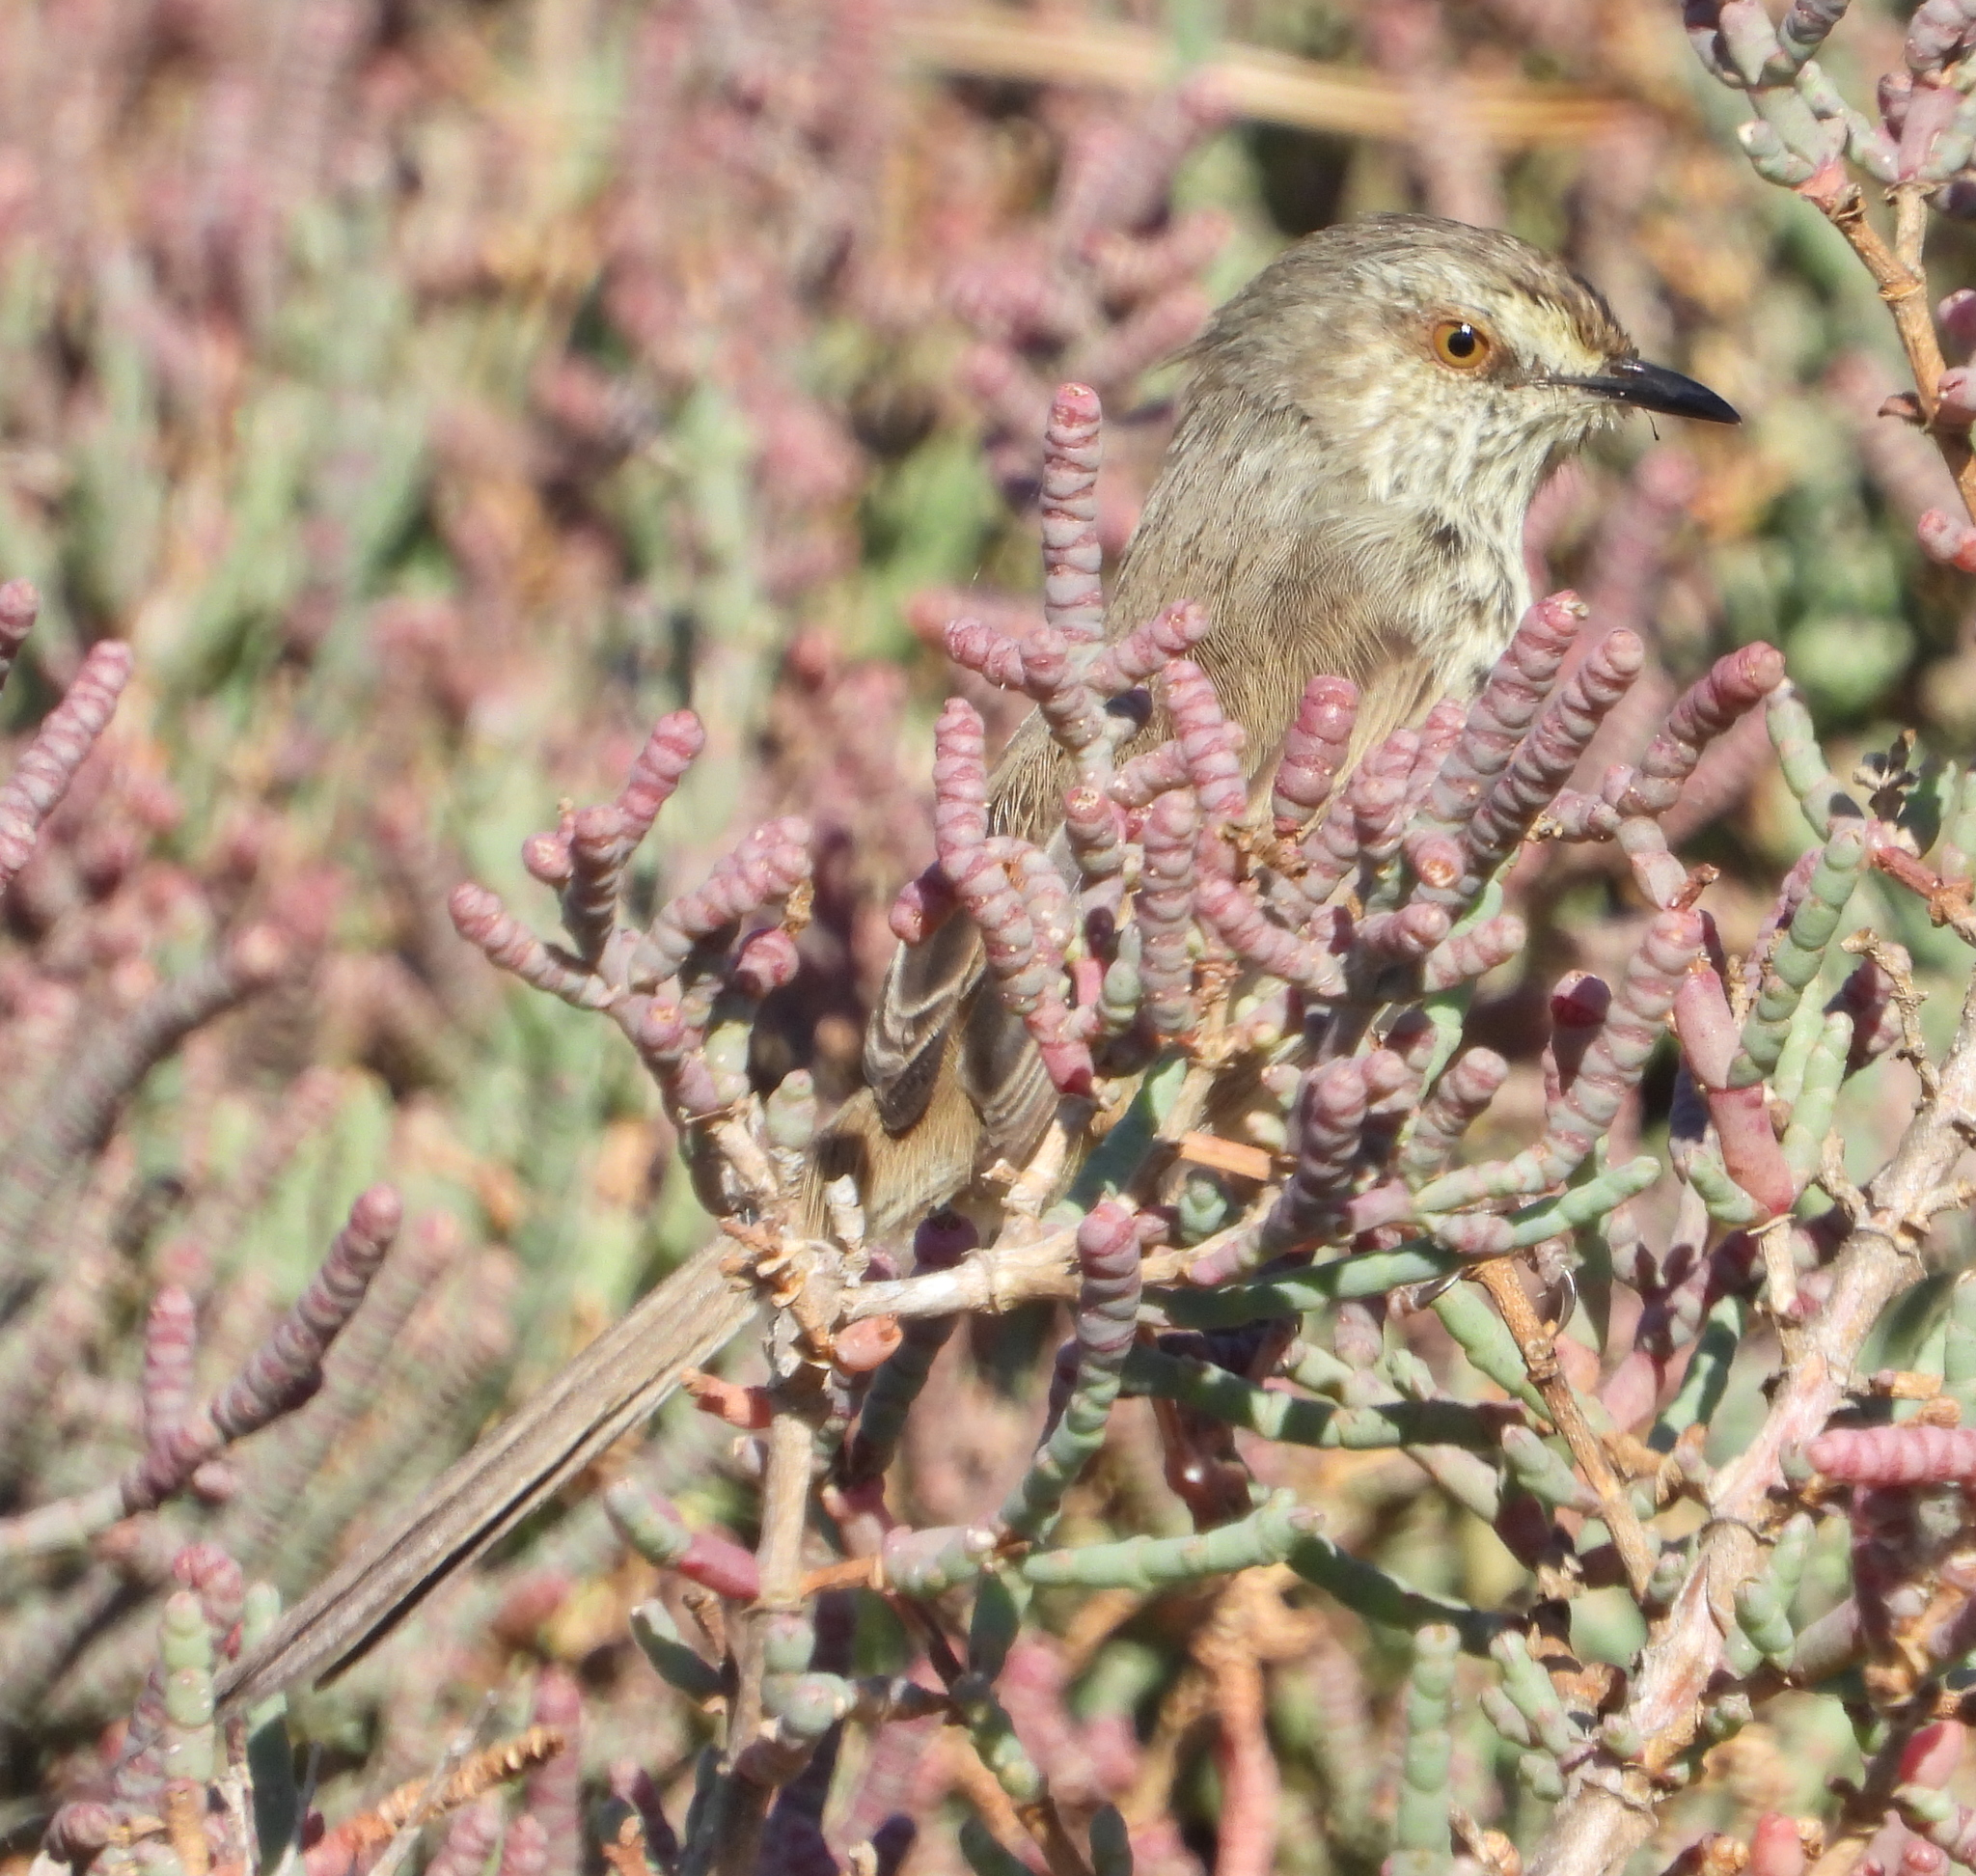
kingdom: Animalia
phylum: Chordata
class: Aves
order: Passeriformes
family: Cisticolidae
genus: Prinia
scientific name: Prinia maculosa
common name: Karoo prinia
